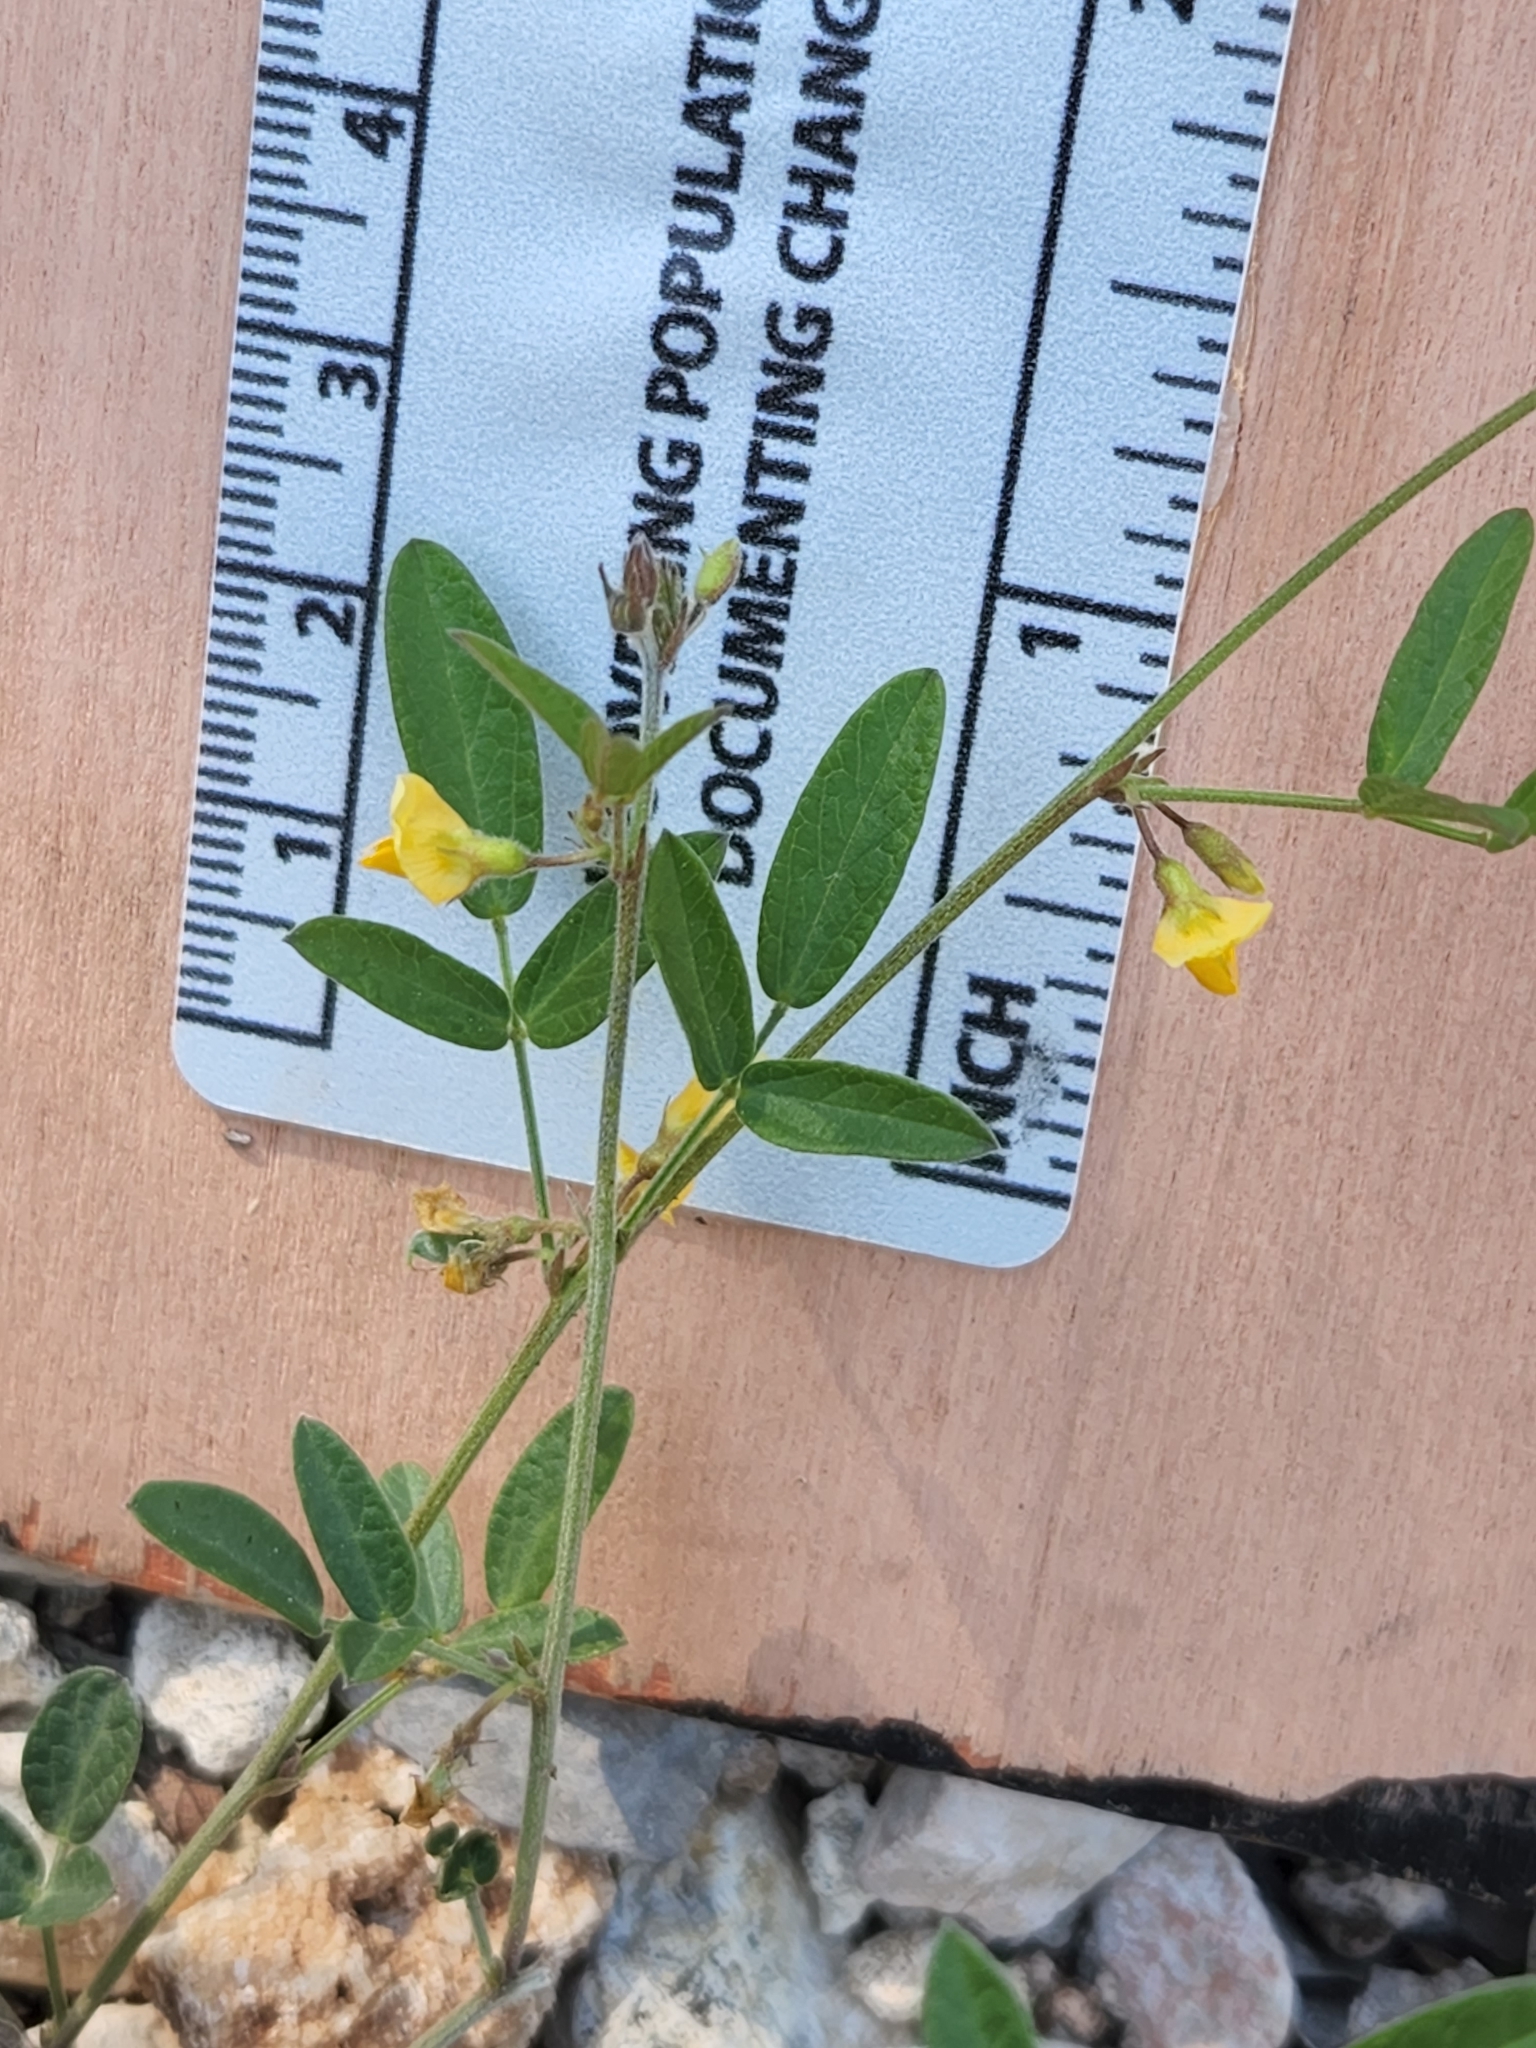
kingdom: Plantae
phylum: Tracheophyta
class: Magnoliopsida
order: Fabales
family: Fabaceae
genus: Rhynchosia
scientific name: Rhynchosia senna
